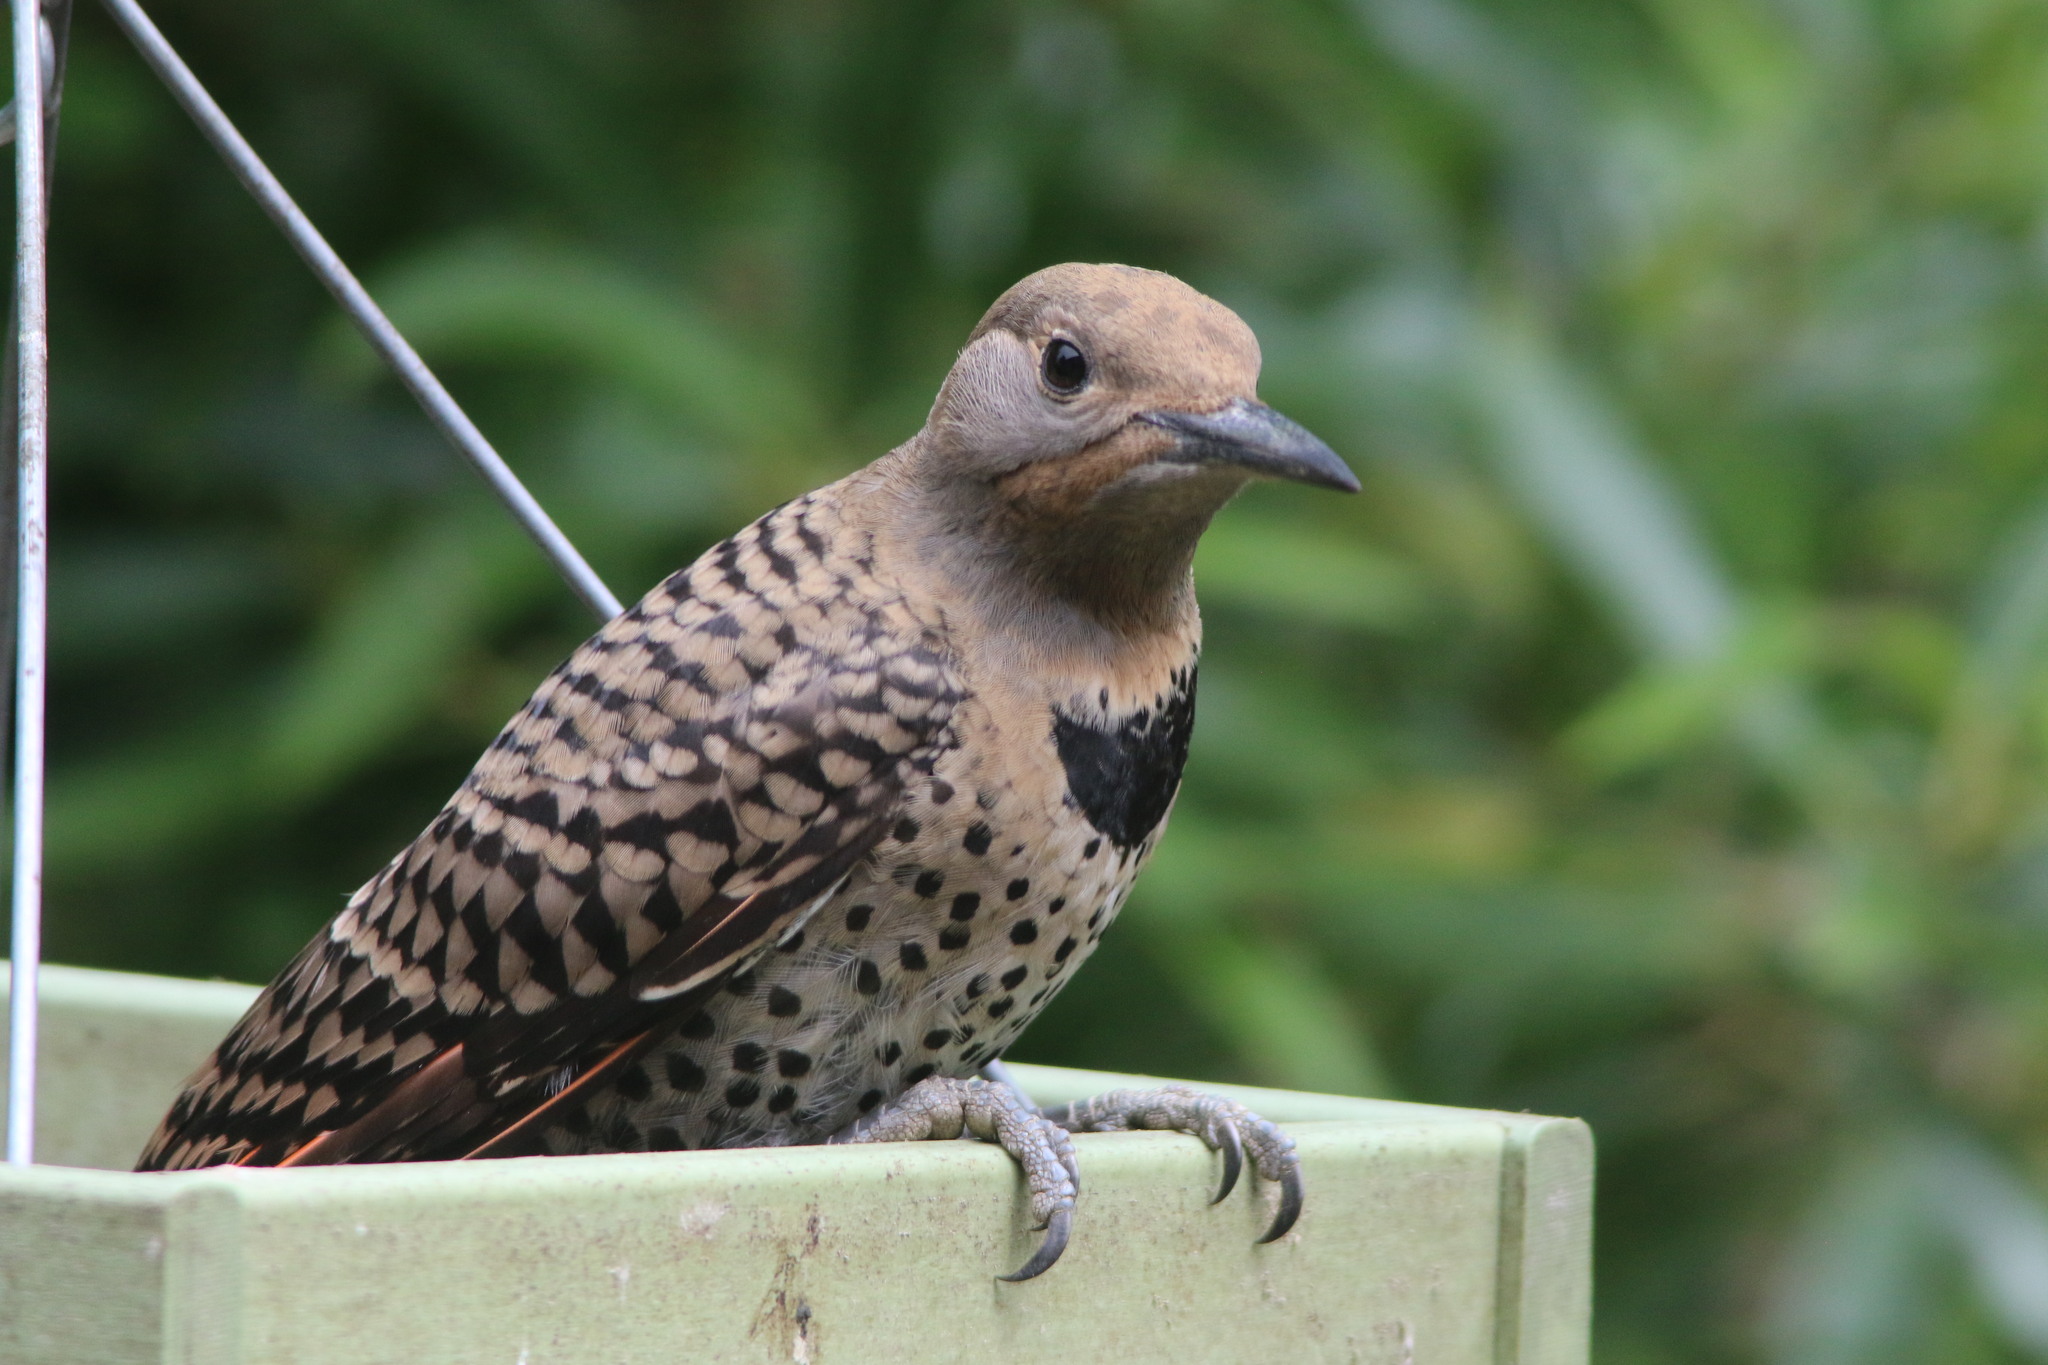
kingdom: Animalia
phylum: Chordata
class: Aves
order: Piciformes
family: Picidae
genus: Colaptes
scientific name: Colaptes auratus
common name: Northern flicker
